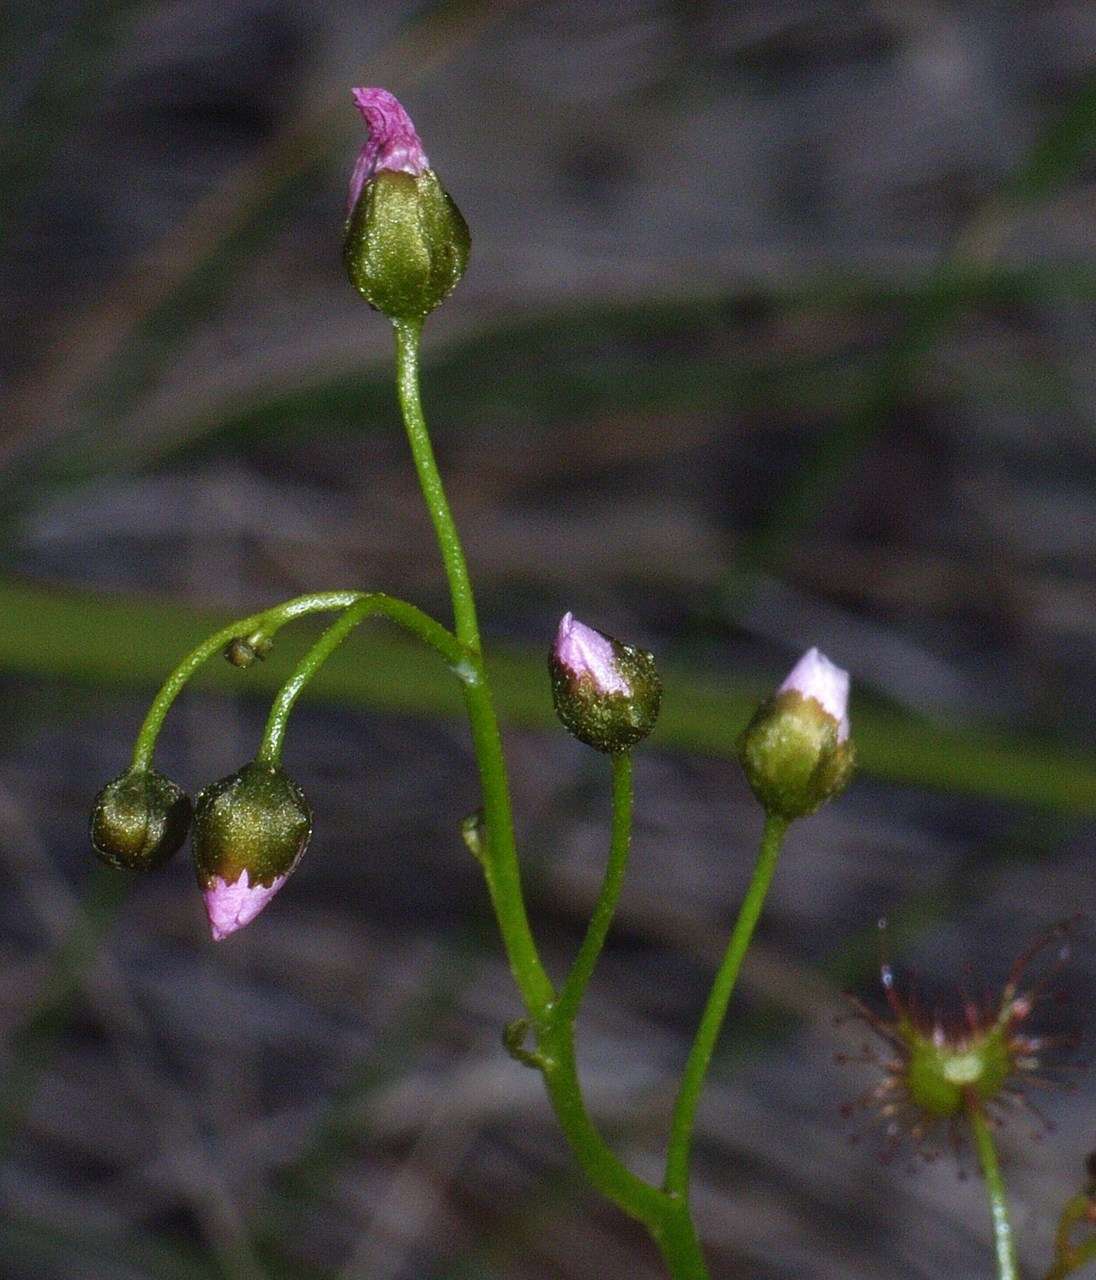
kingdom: Plantae
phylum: Tracheophyta
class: Magnoliopsida
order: Caryophyllales
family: Droseraceae
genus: Drosera
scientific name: Drosera peltata
